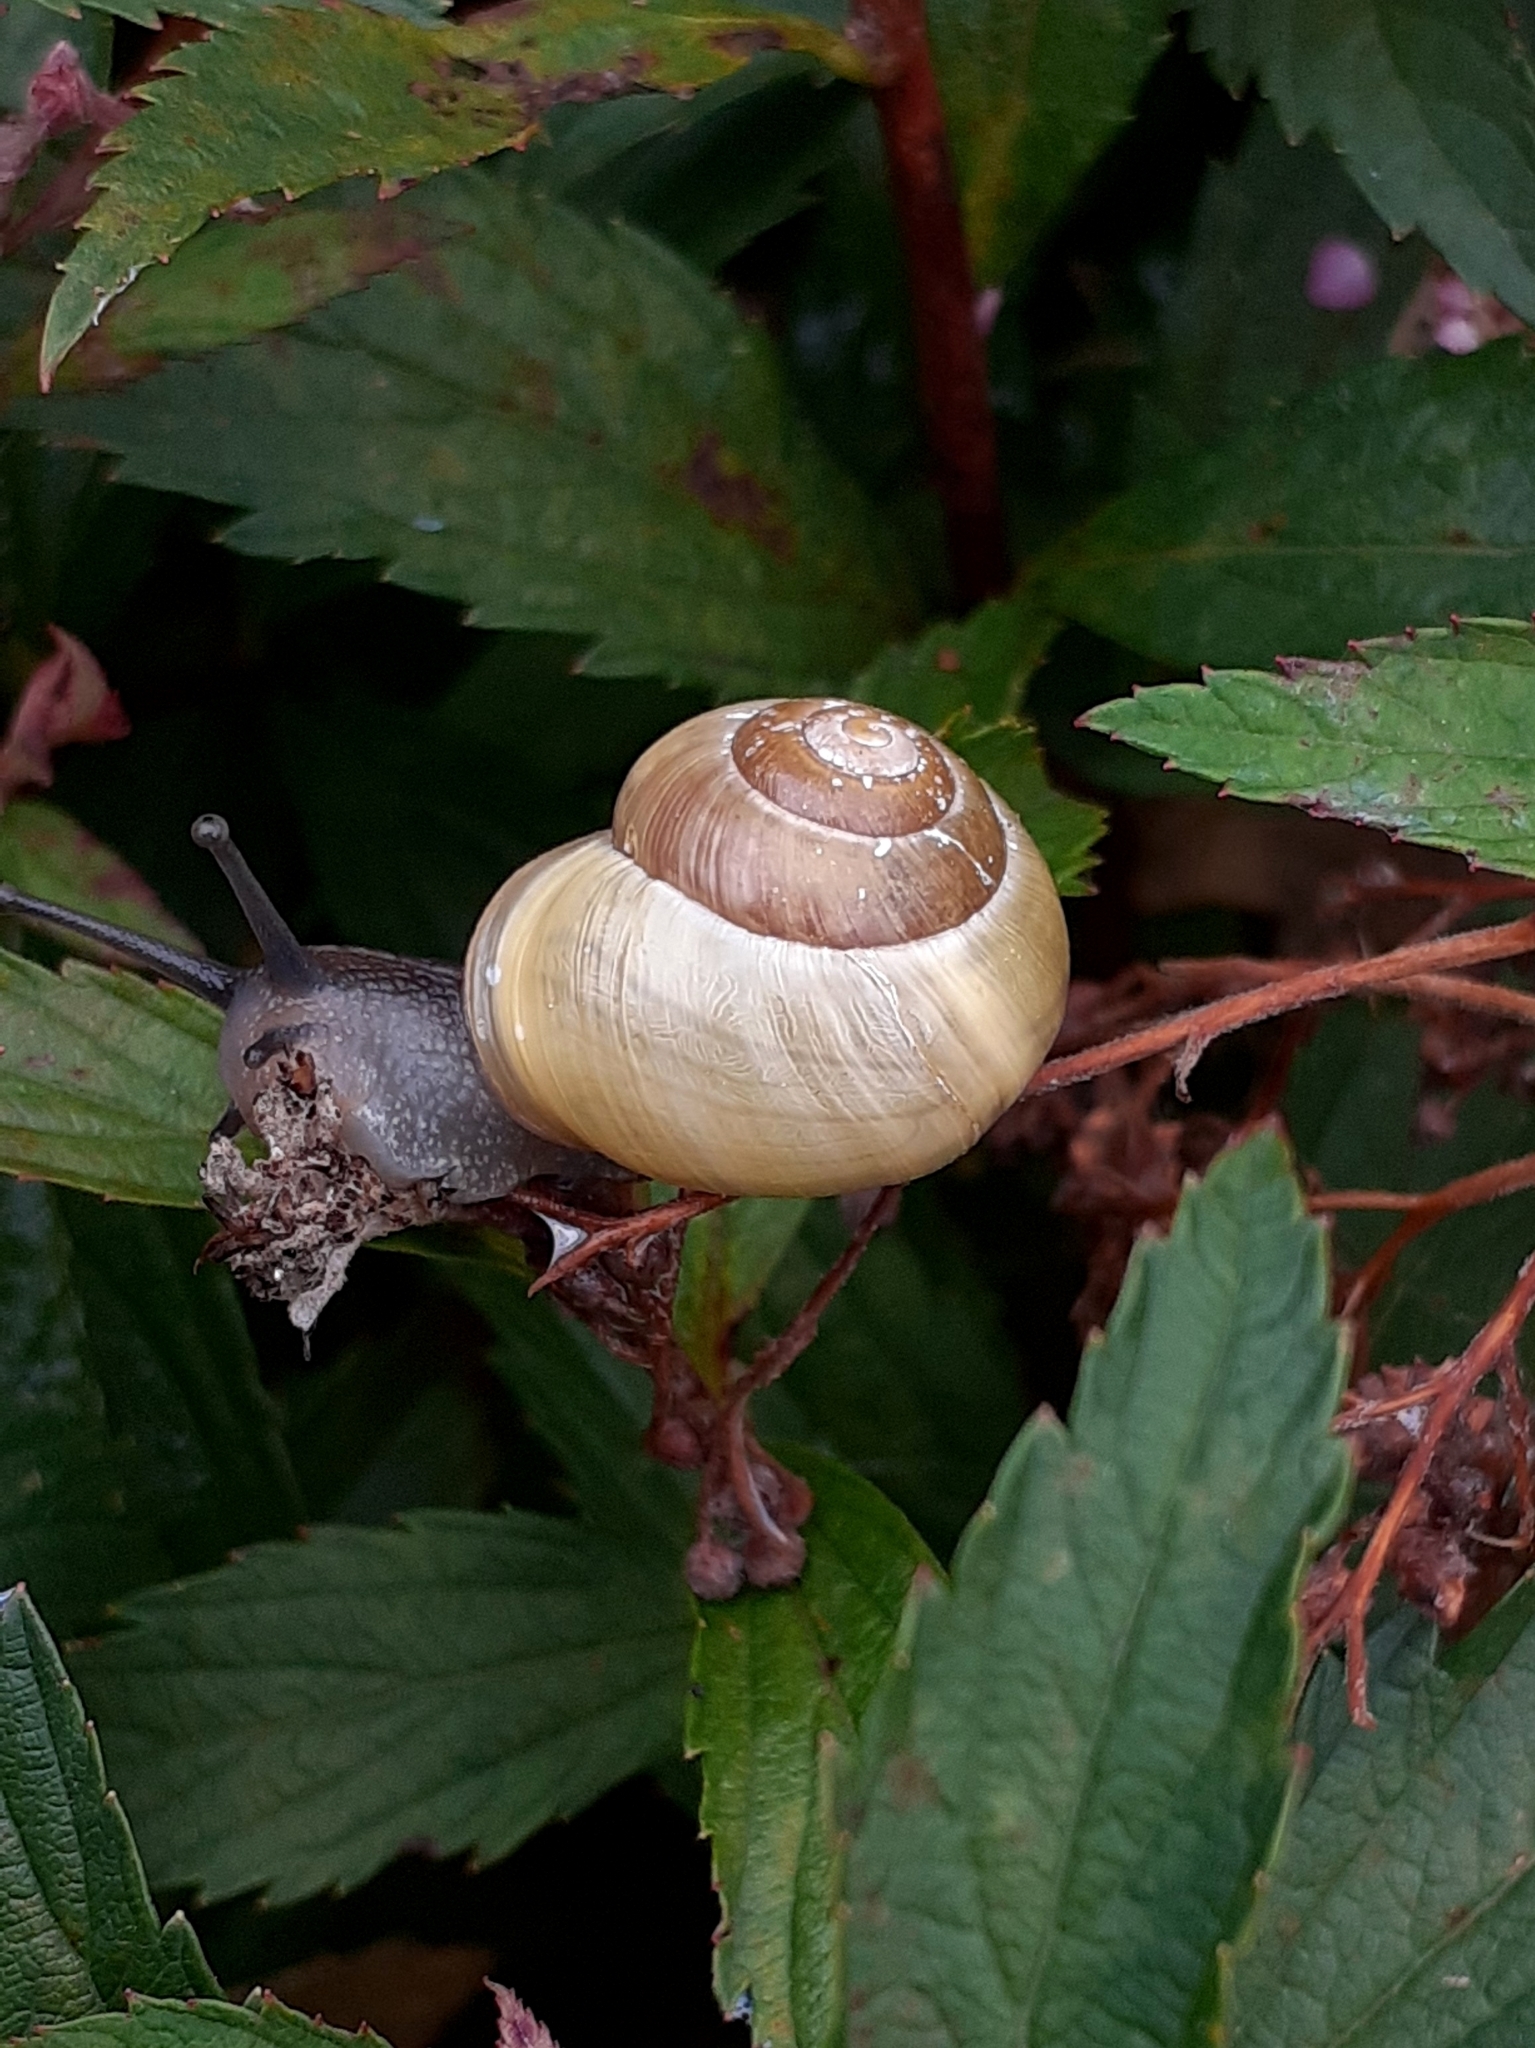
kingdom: Animalia
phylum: Mollusca
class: Gastropoda
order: Stylommatophora
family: Helicidae
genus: Cepaea
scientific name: Cepaea hortensis
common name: White-lip gardensnail
